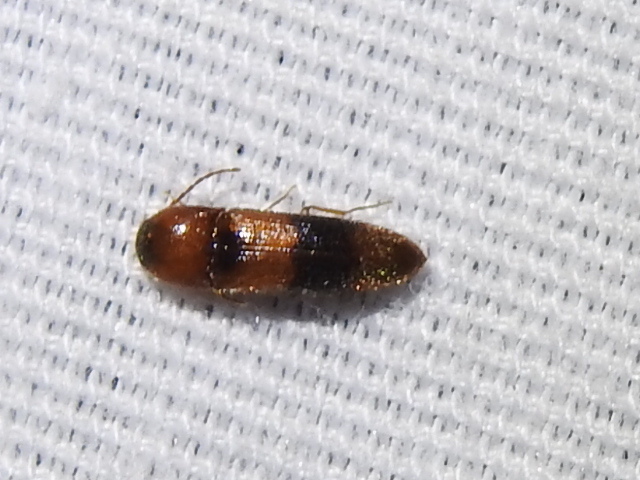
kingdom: Animalia
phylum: Arthropoda
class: Insecta
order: Coleoptera
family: Elateridae
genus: Ampedus
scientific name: Ampedus areolatus
